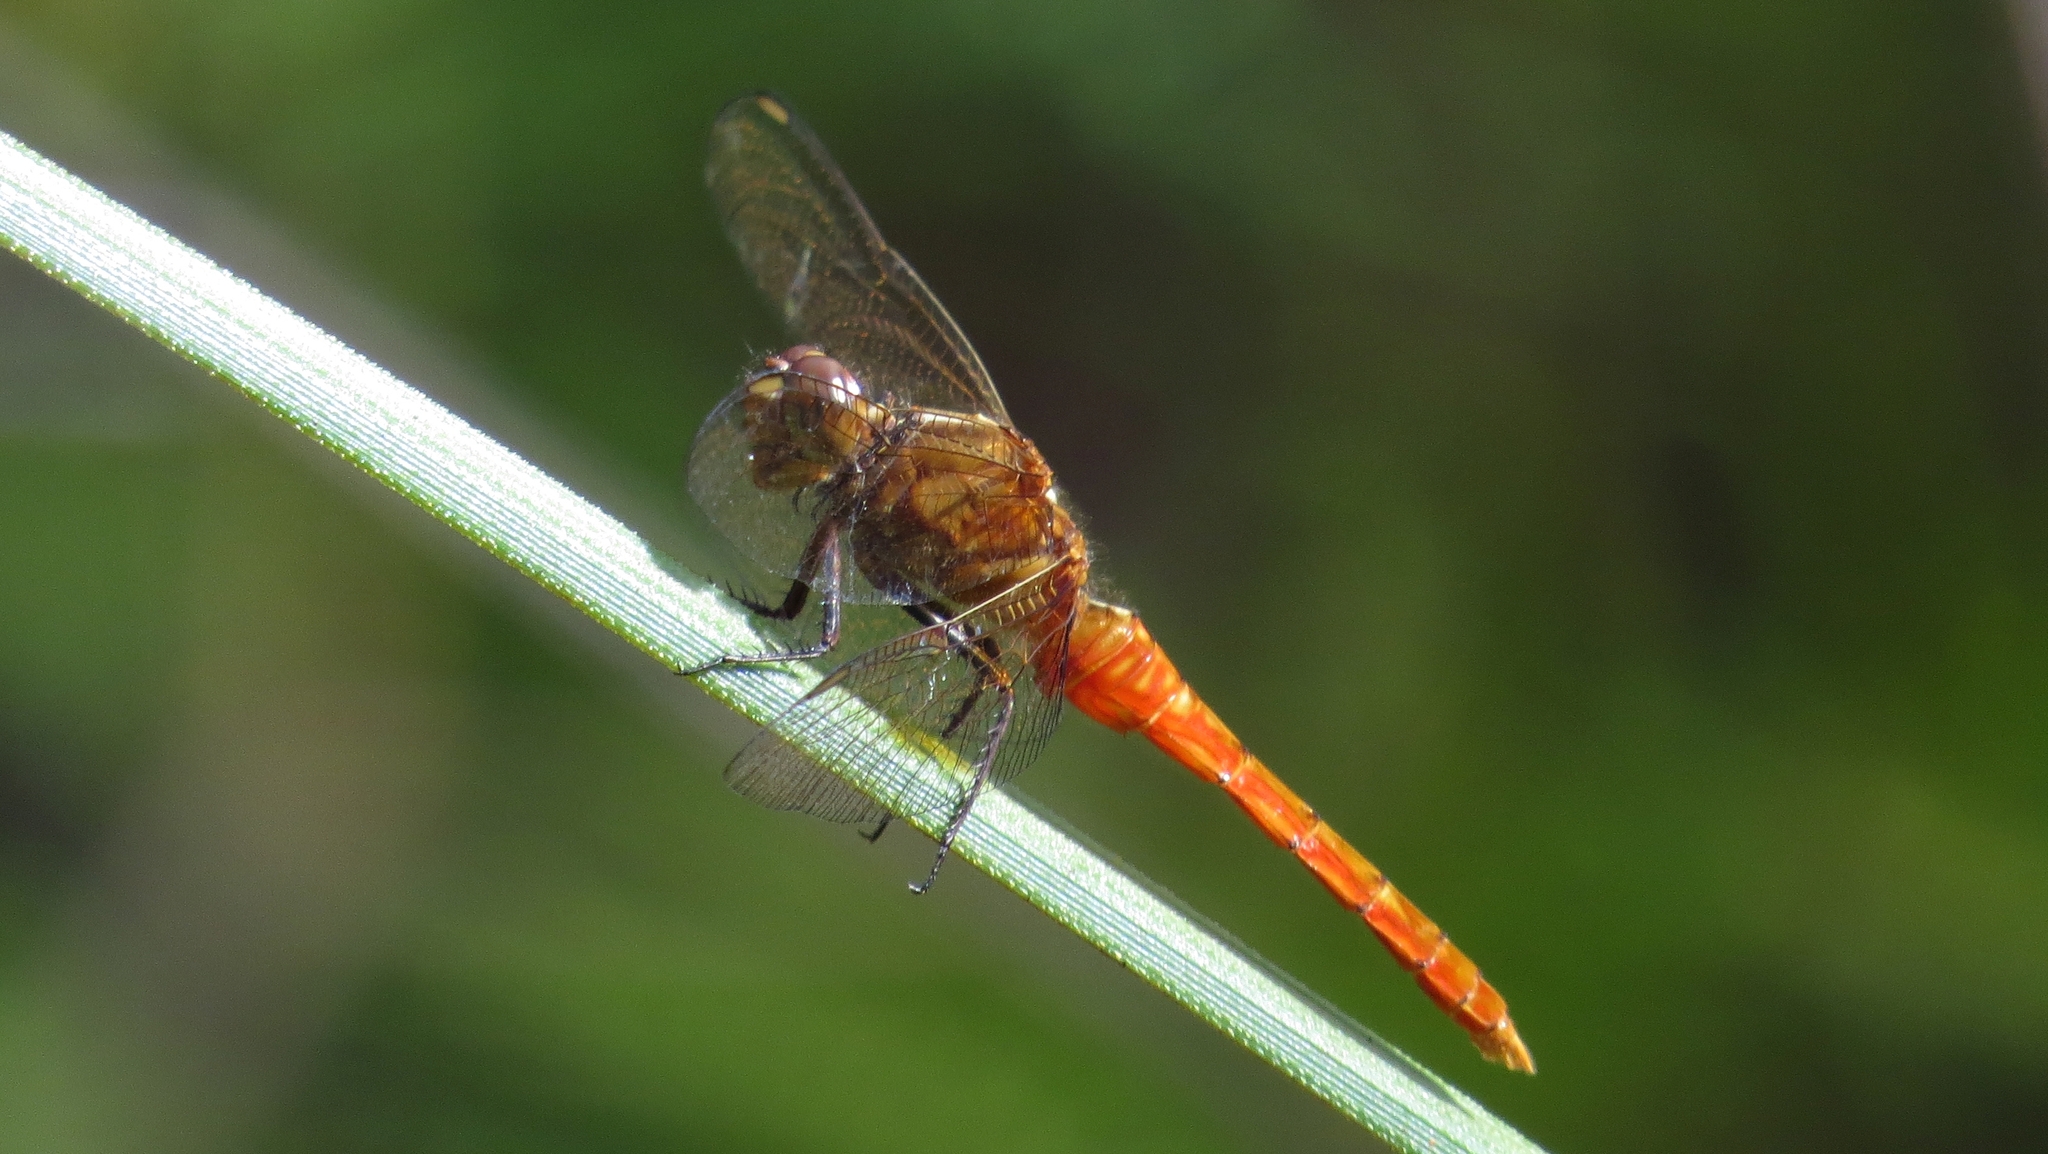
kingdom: Animalia
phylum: Arthropoda
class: Insecta
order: Odonata
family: Libellulidae
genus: Orthetrum
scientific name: Orthetrum villosovittatum
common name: Firery skimmer
